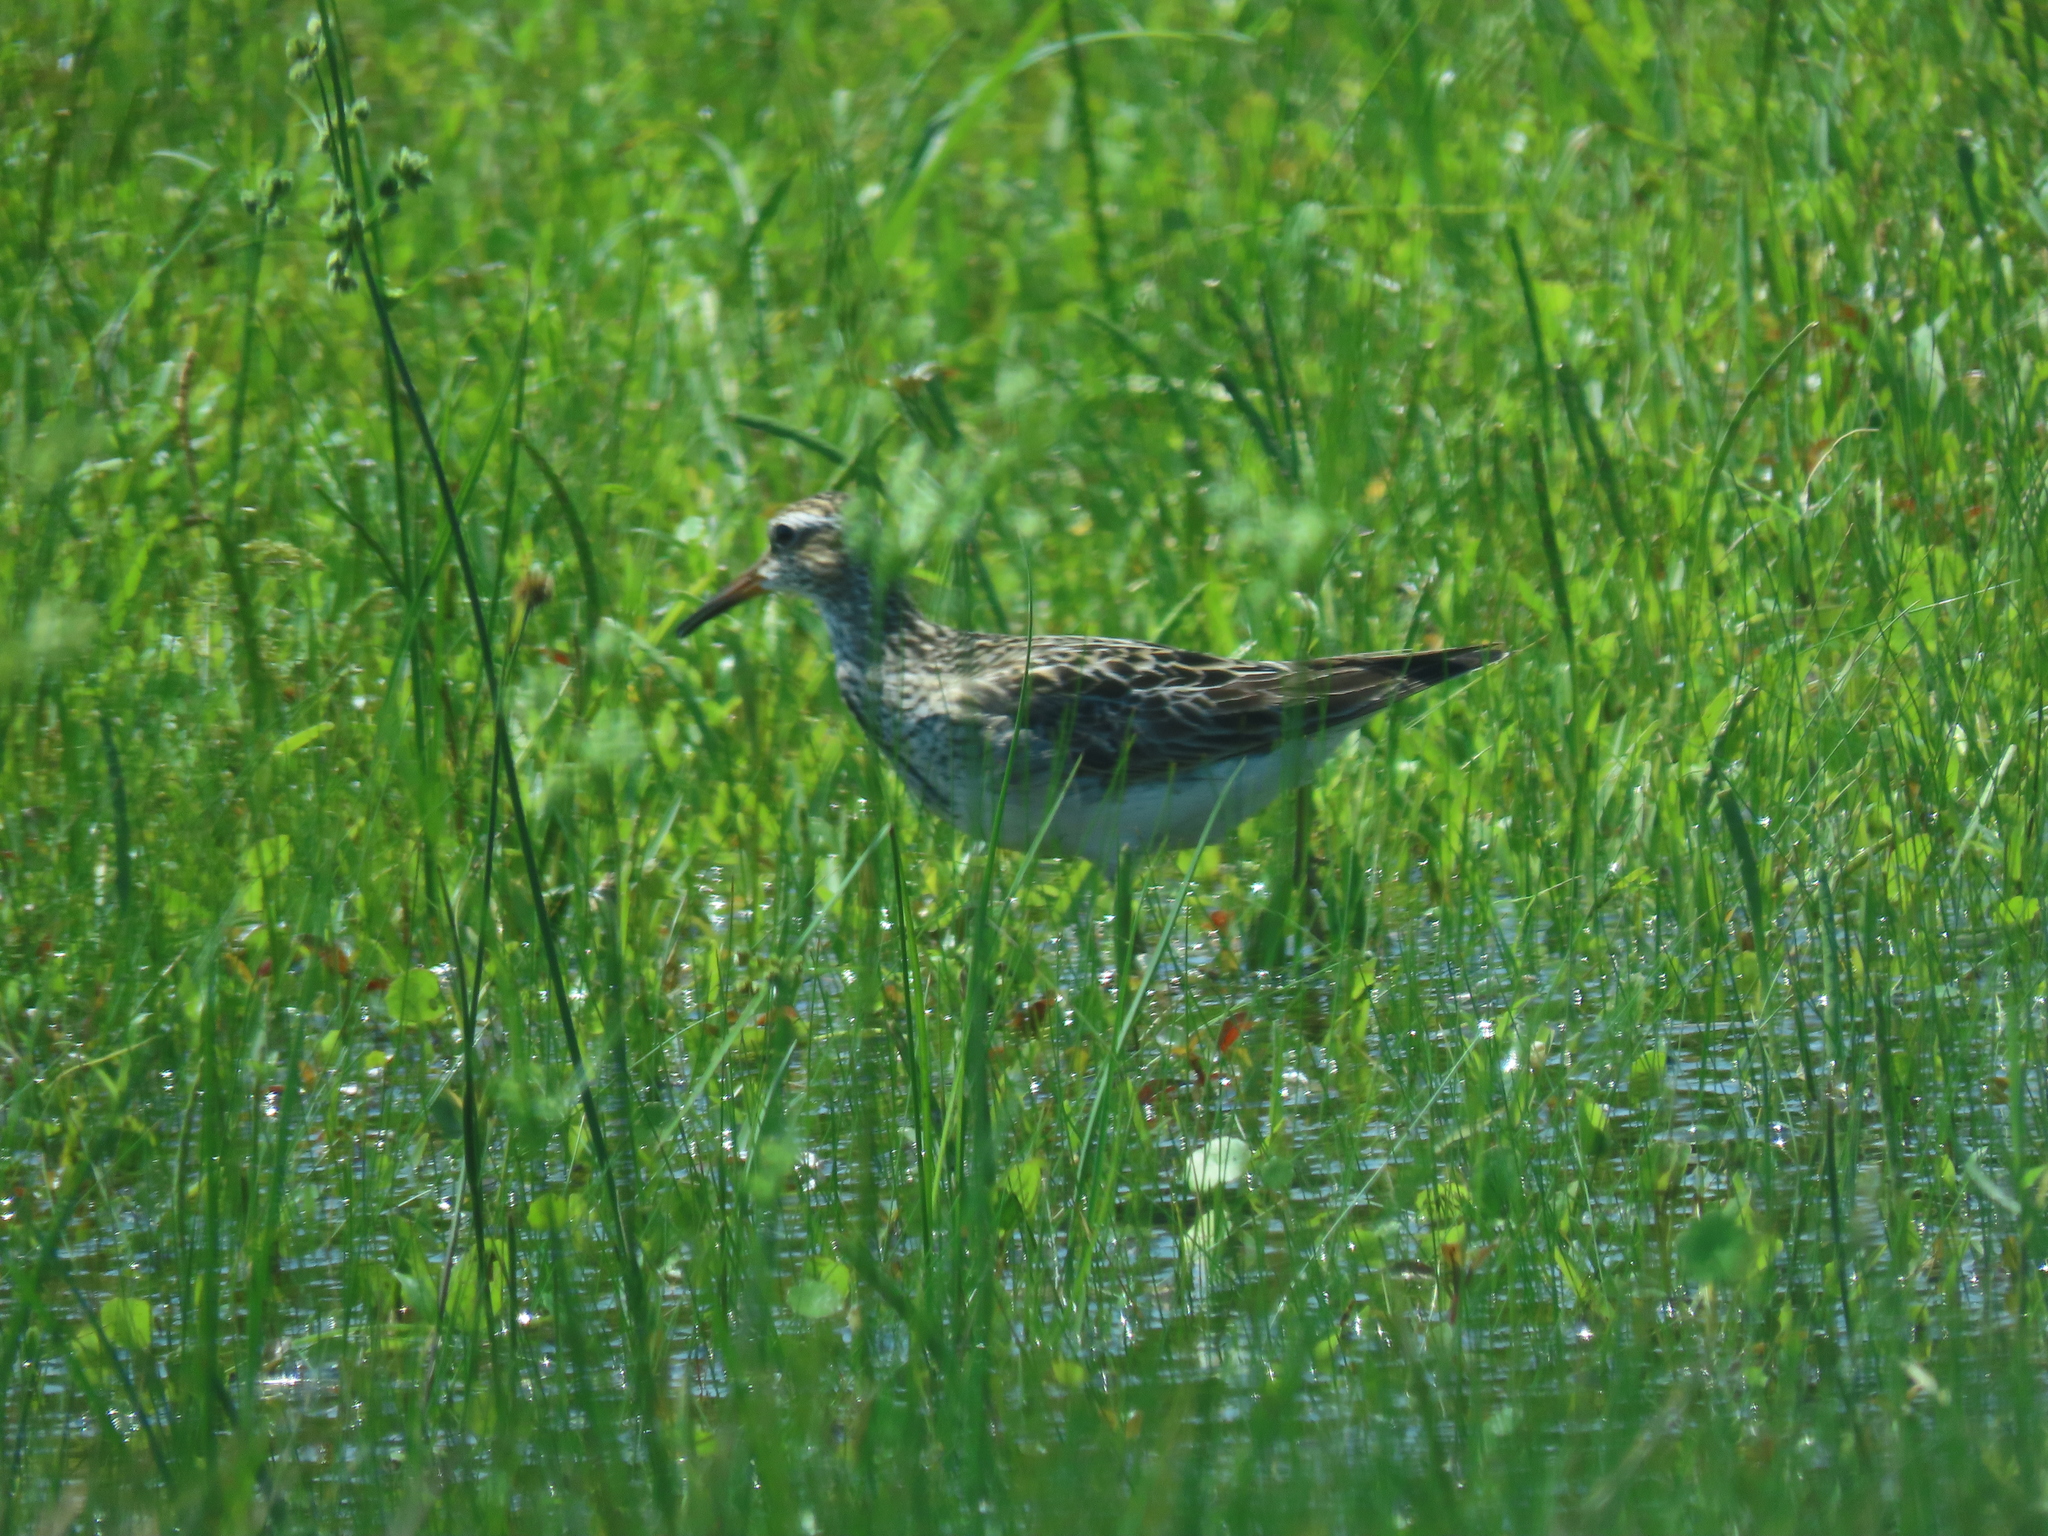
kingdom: Animalia
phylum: Chordata
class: Aves
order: Charadriiformes
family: Scolopacidae
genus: Calidris
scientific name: Calidris melanotos
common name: Pectoral sandpiper
